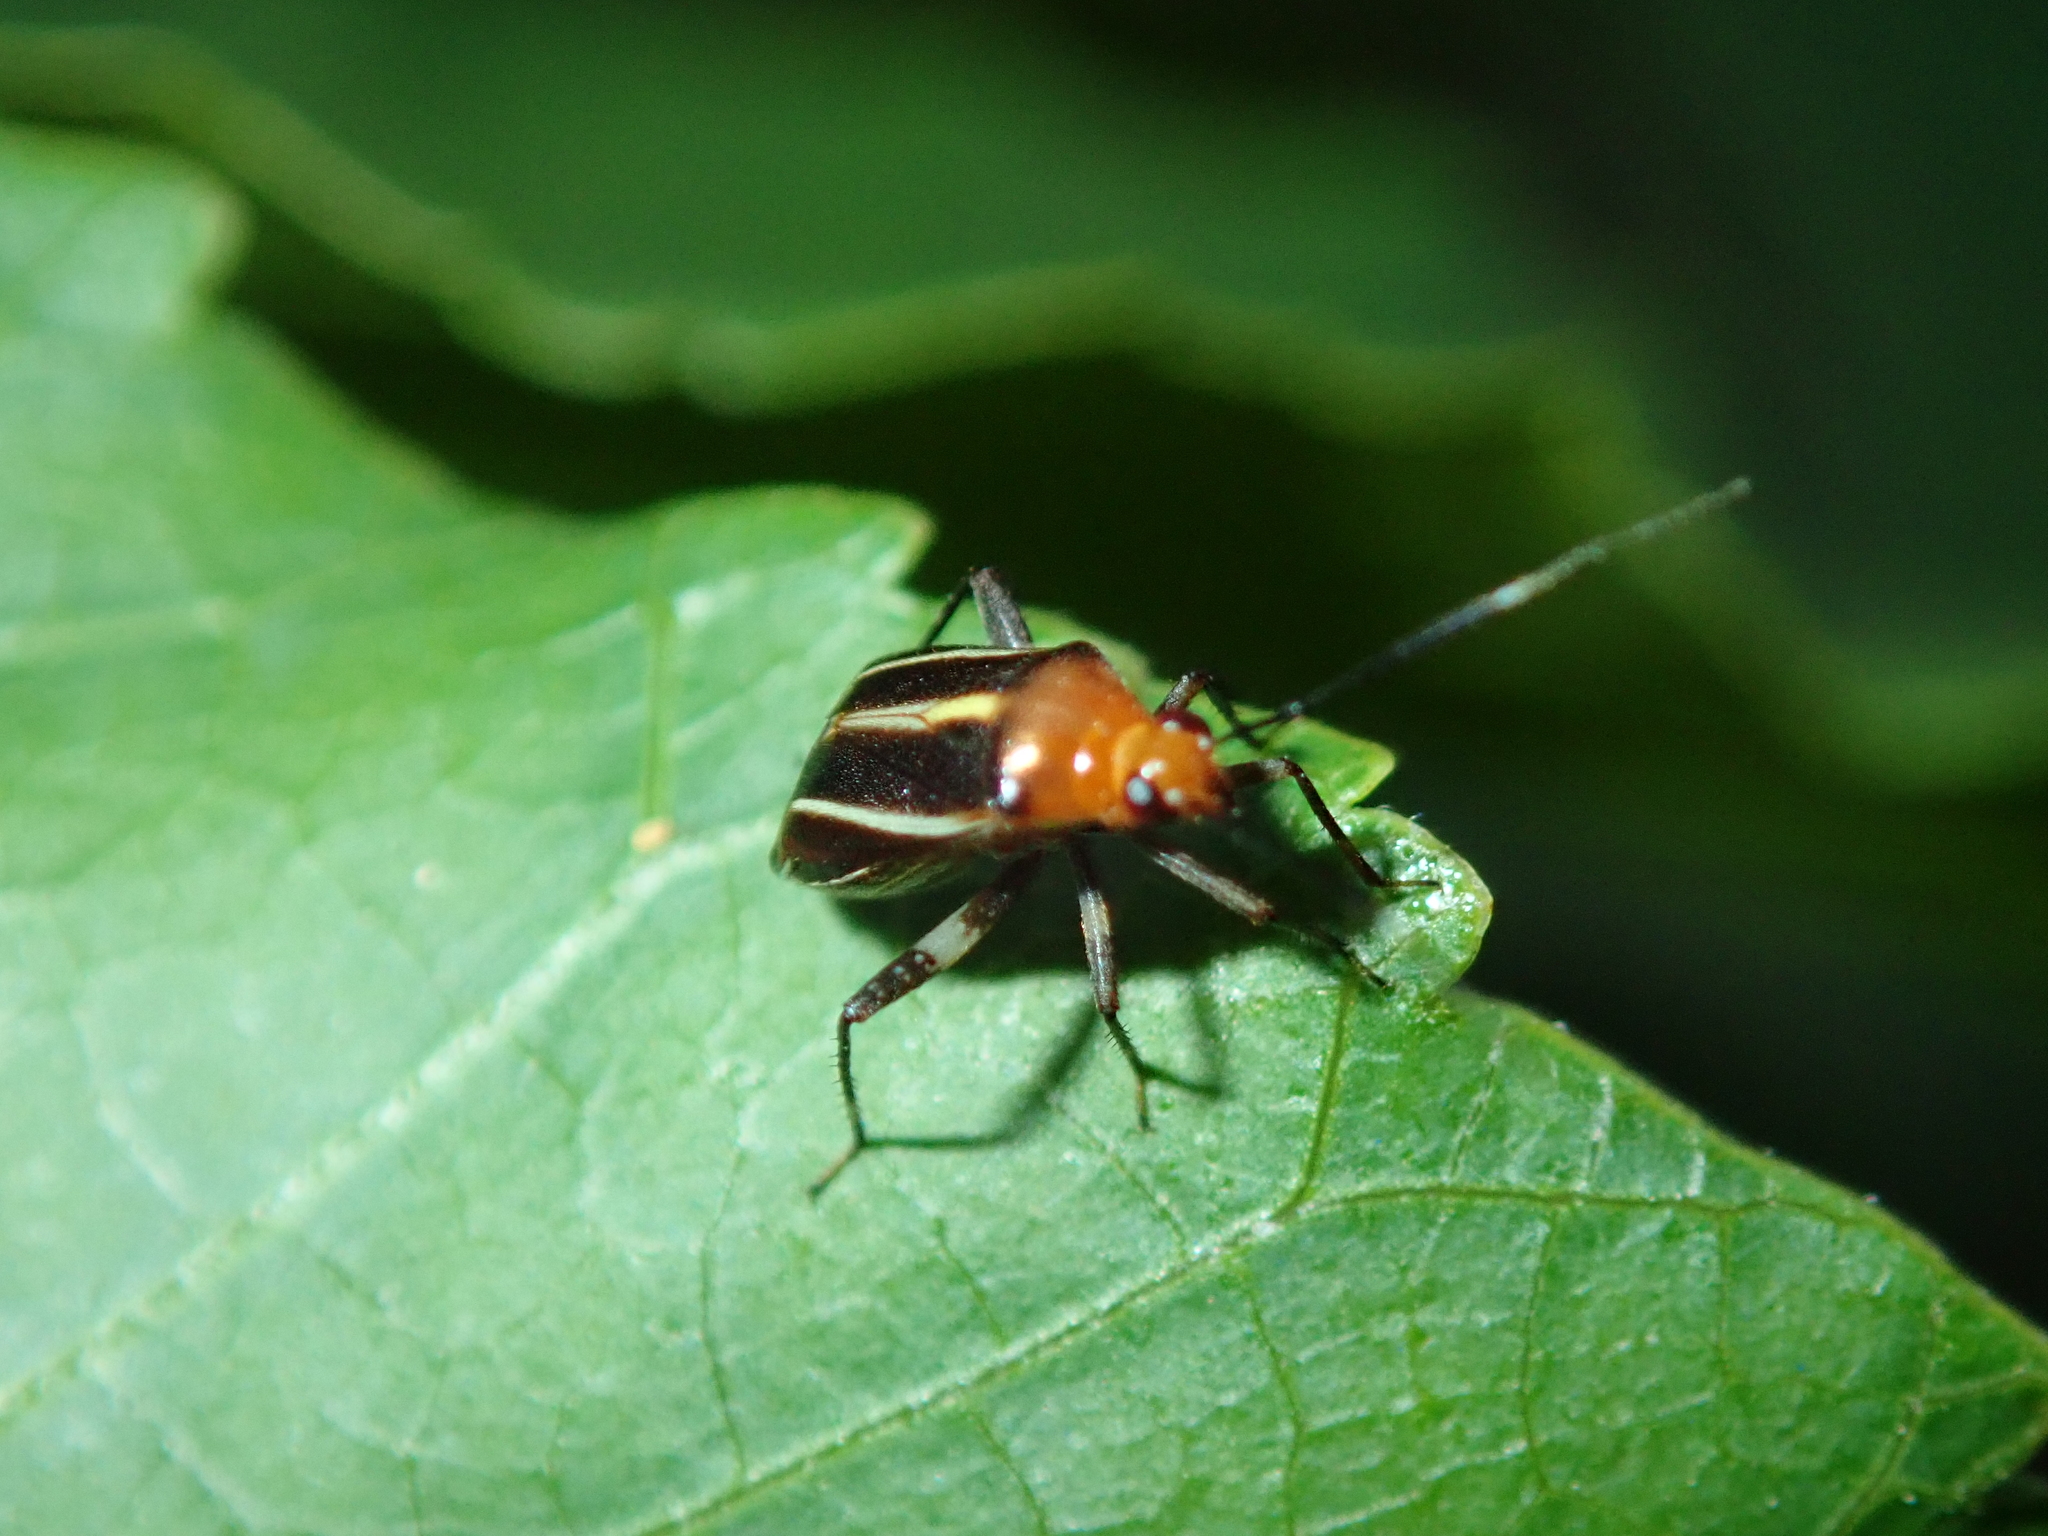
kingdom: Animalia
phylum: Arthropoda
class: Insecta
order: Hemiptera
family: Miridae
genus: Horciasinus
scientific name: Horciasinus signoreti
